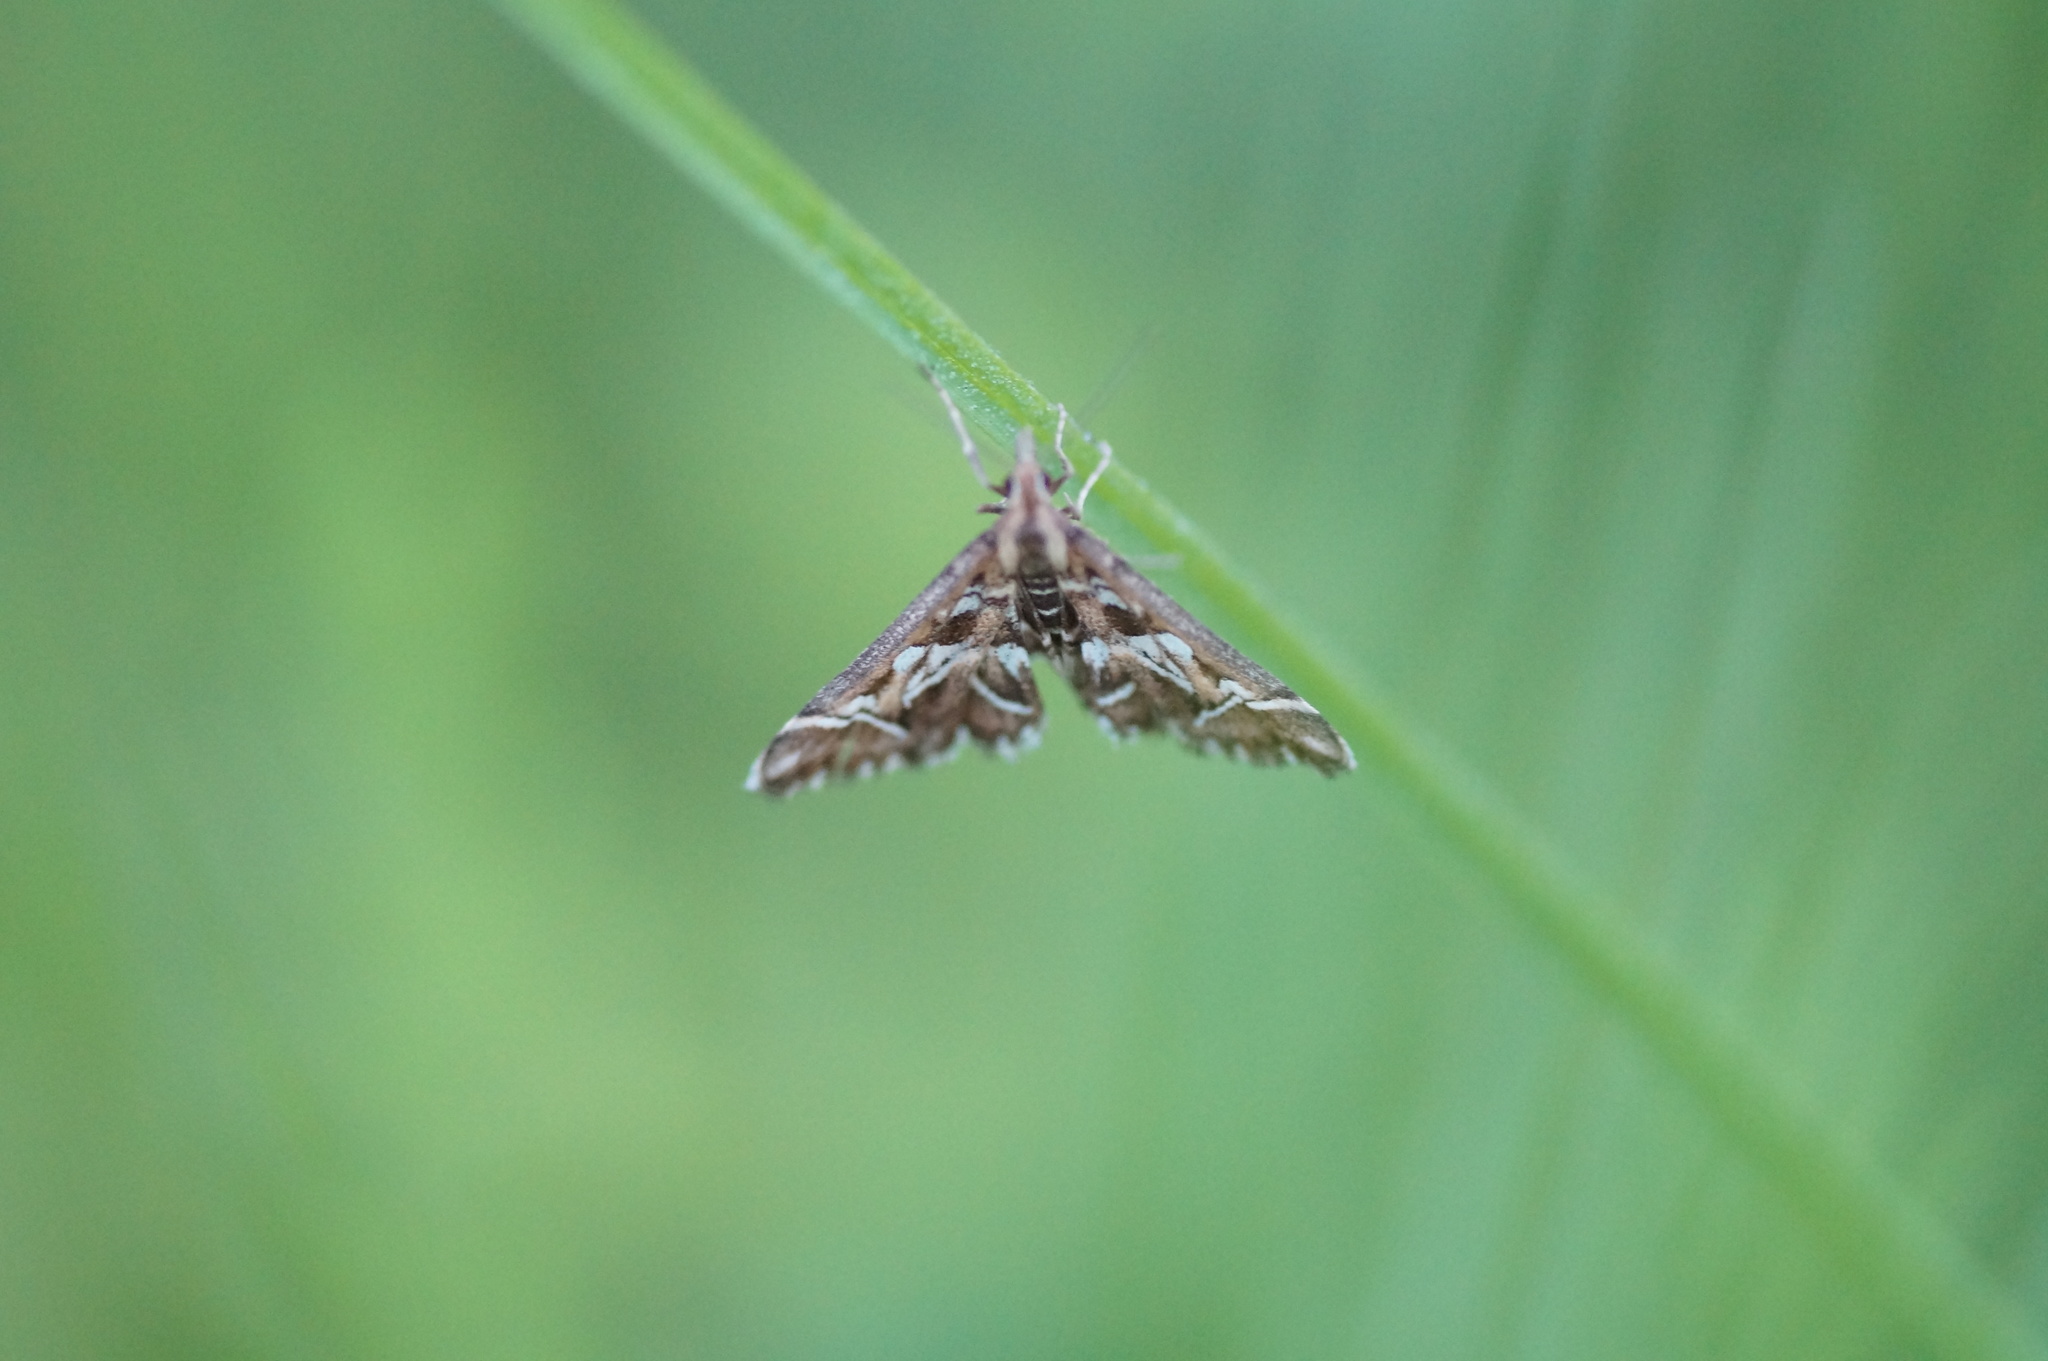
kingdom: Animalia
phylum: Arthropoda
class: Insecta
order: Lepidoptera
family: Crambidae
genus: Diasemia
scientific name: Diasemia reticularis
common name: Lettered china-mark
